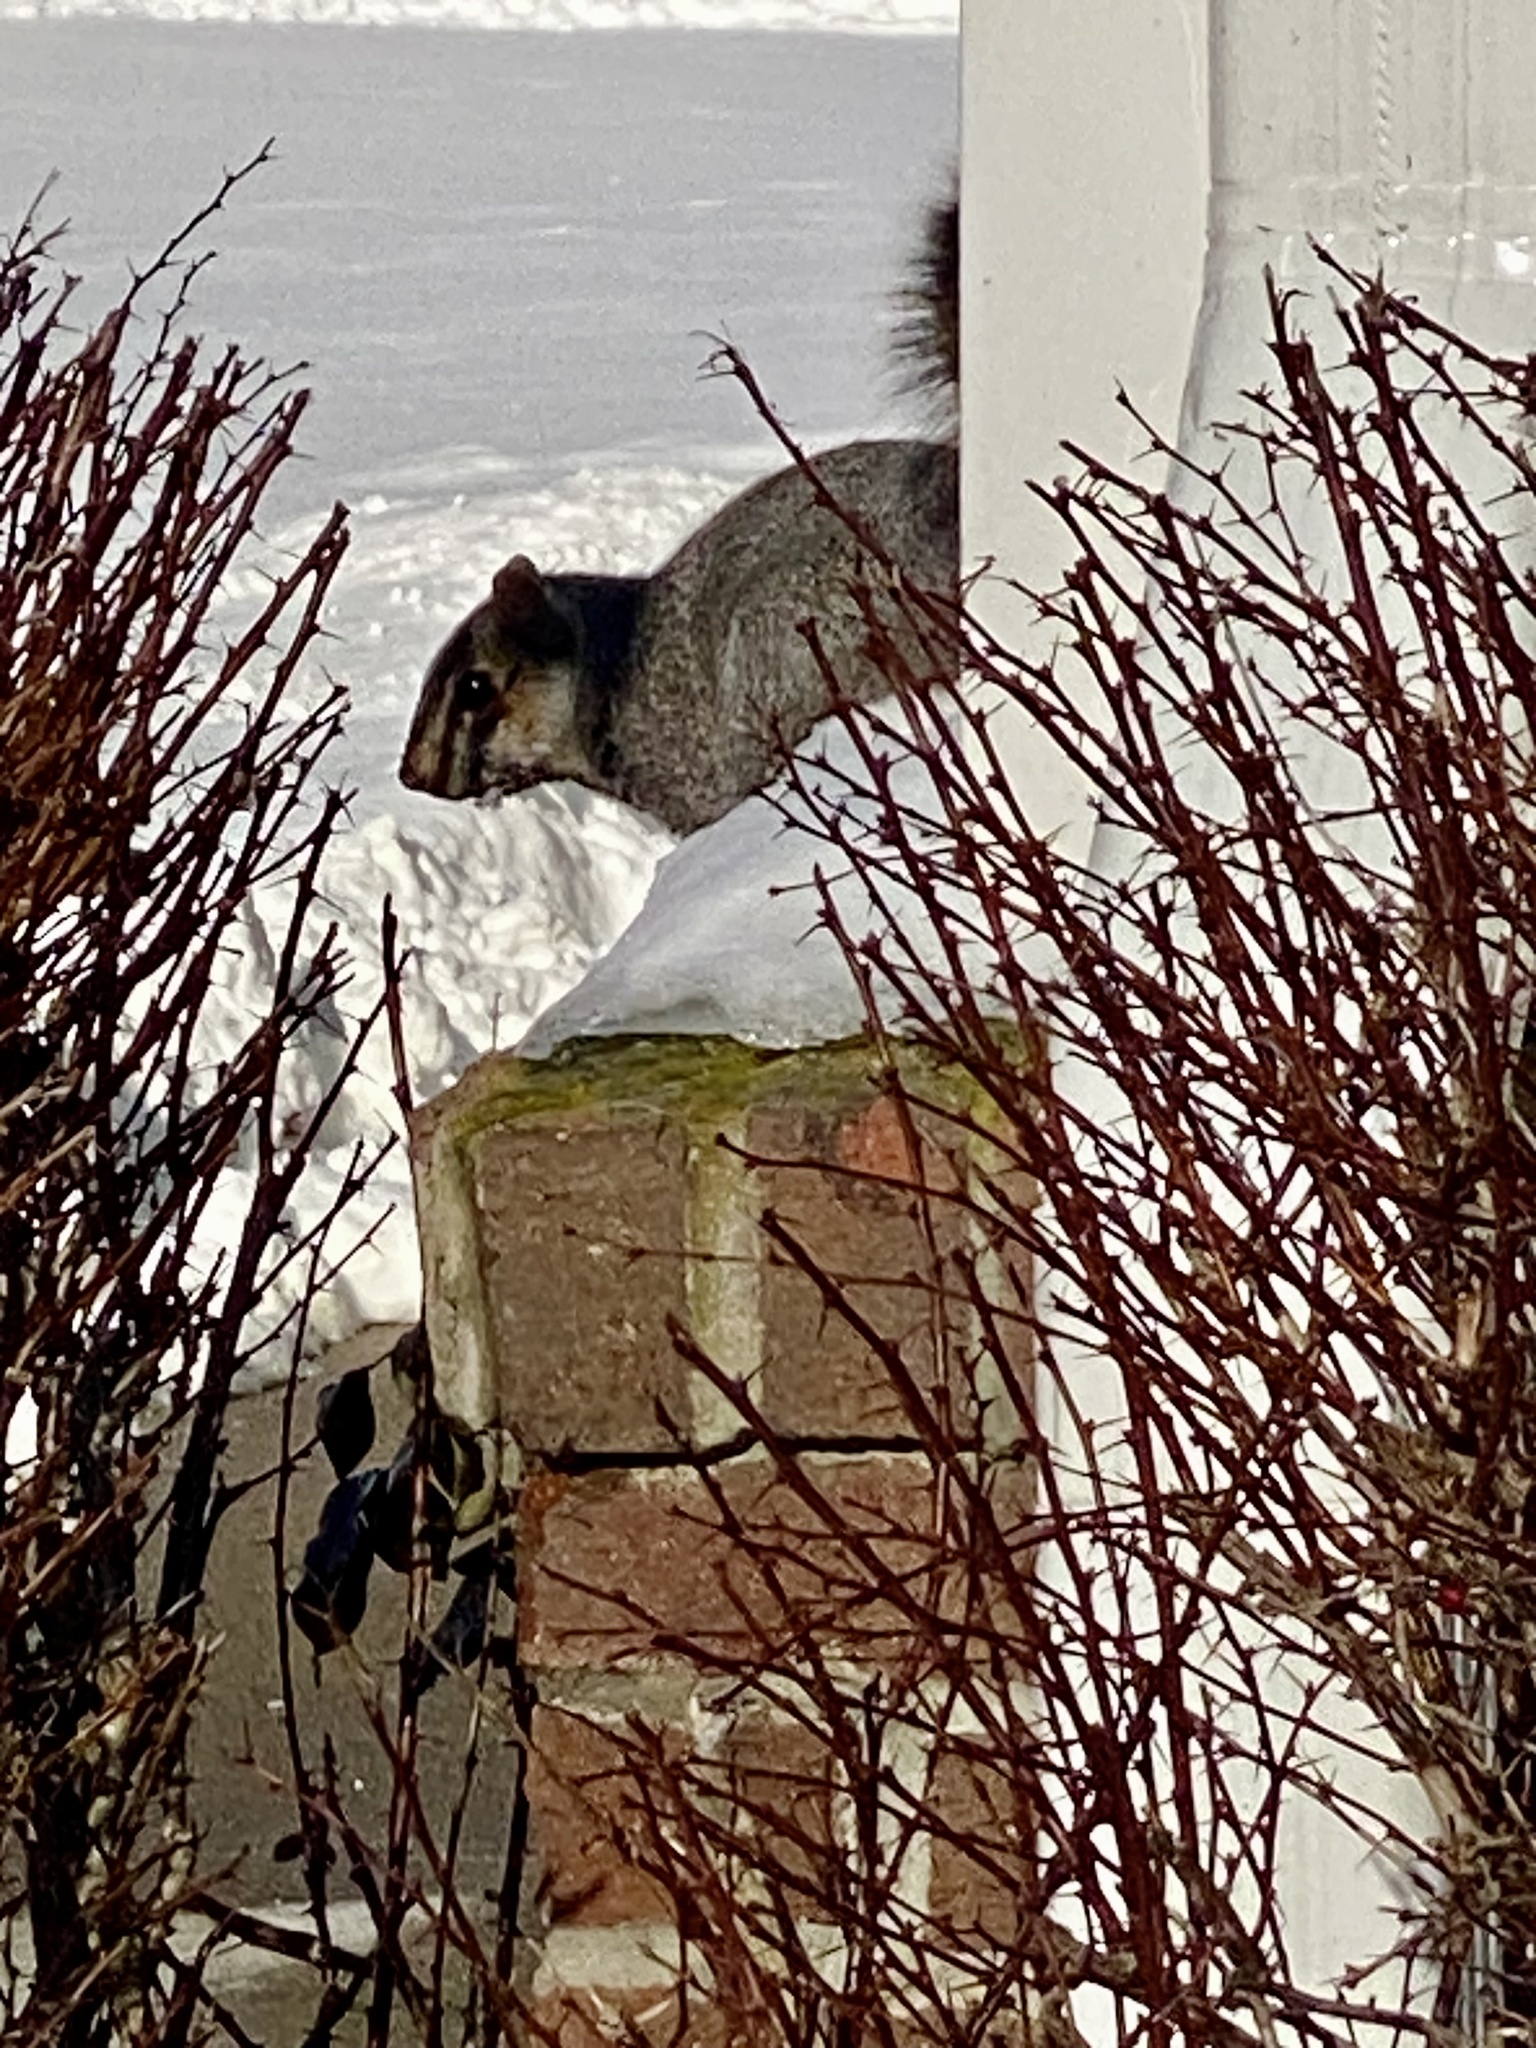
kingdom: Animalia
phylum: Chordata
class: Mammalia
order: Rodentia
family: Sciuridae
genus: Sciurus
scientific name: Sciurus carolinensis
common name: Eastern gray squirrel
